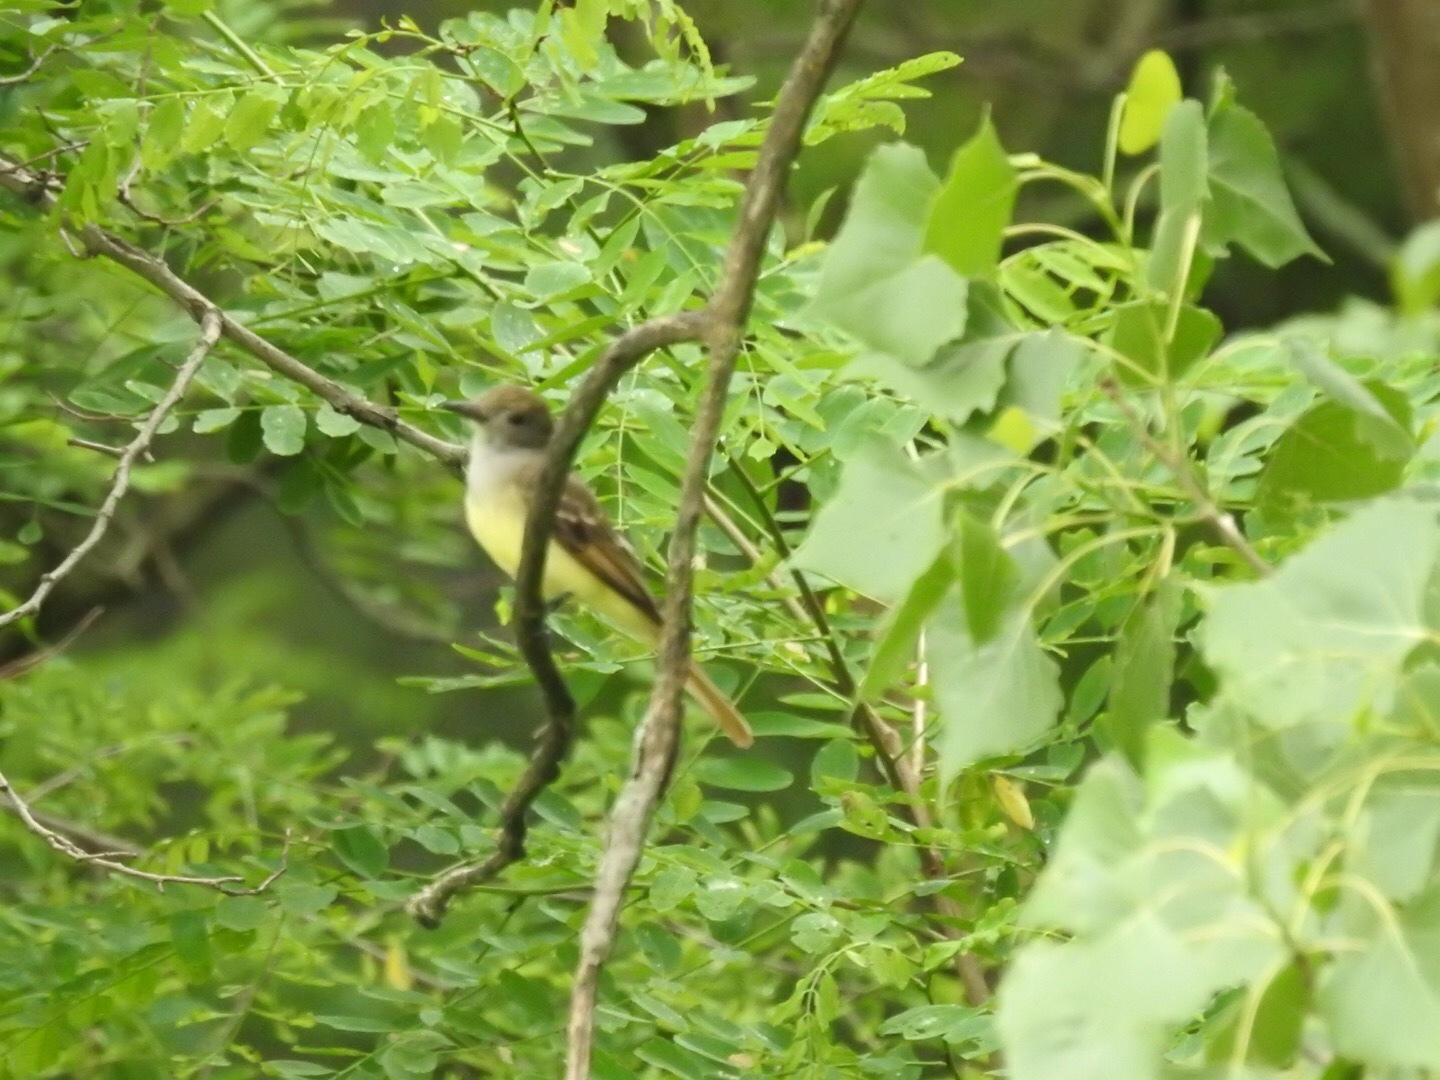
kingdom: Animalia
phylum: Chordata
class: Aves
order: Passeriformes
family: Tyrannidae
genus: Myiarchus
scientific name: Myiarchus crinitus
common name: Great crested flycatcher
